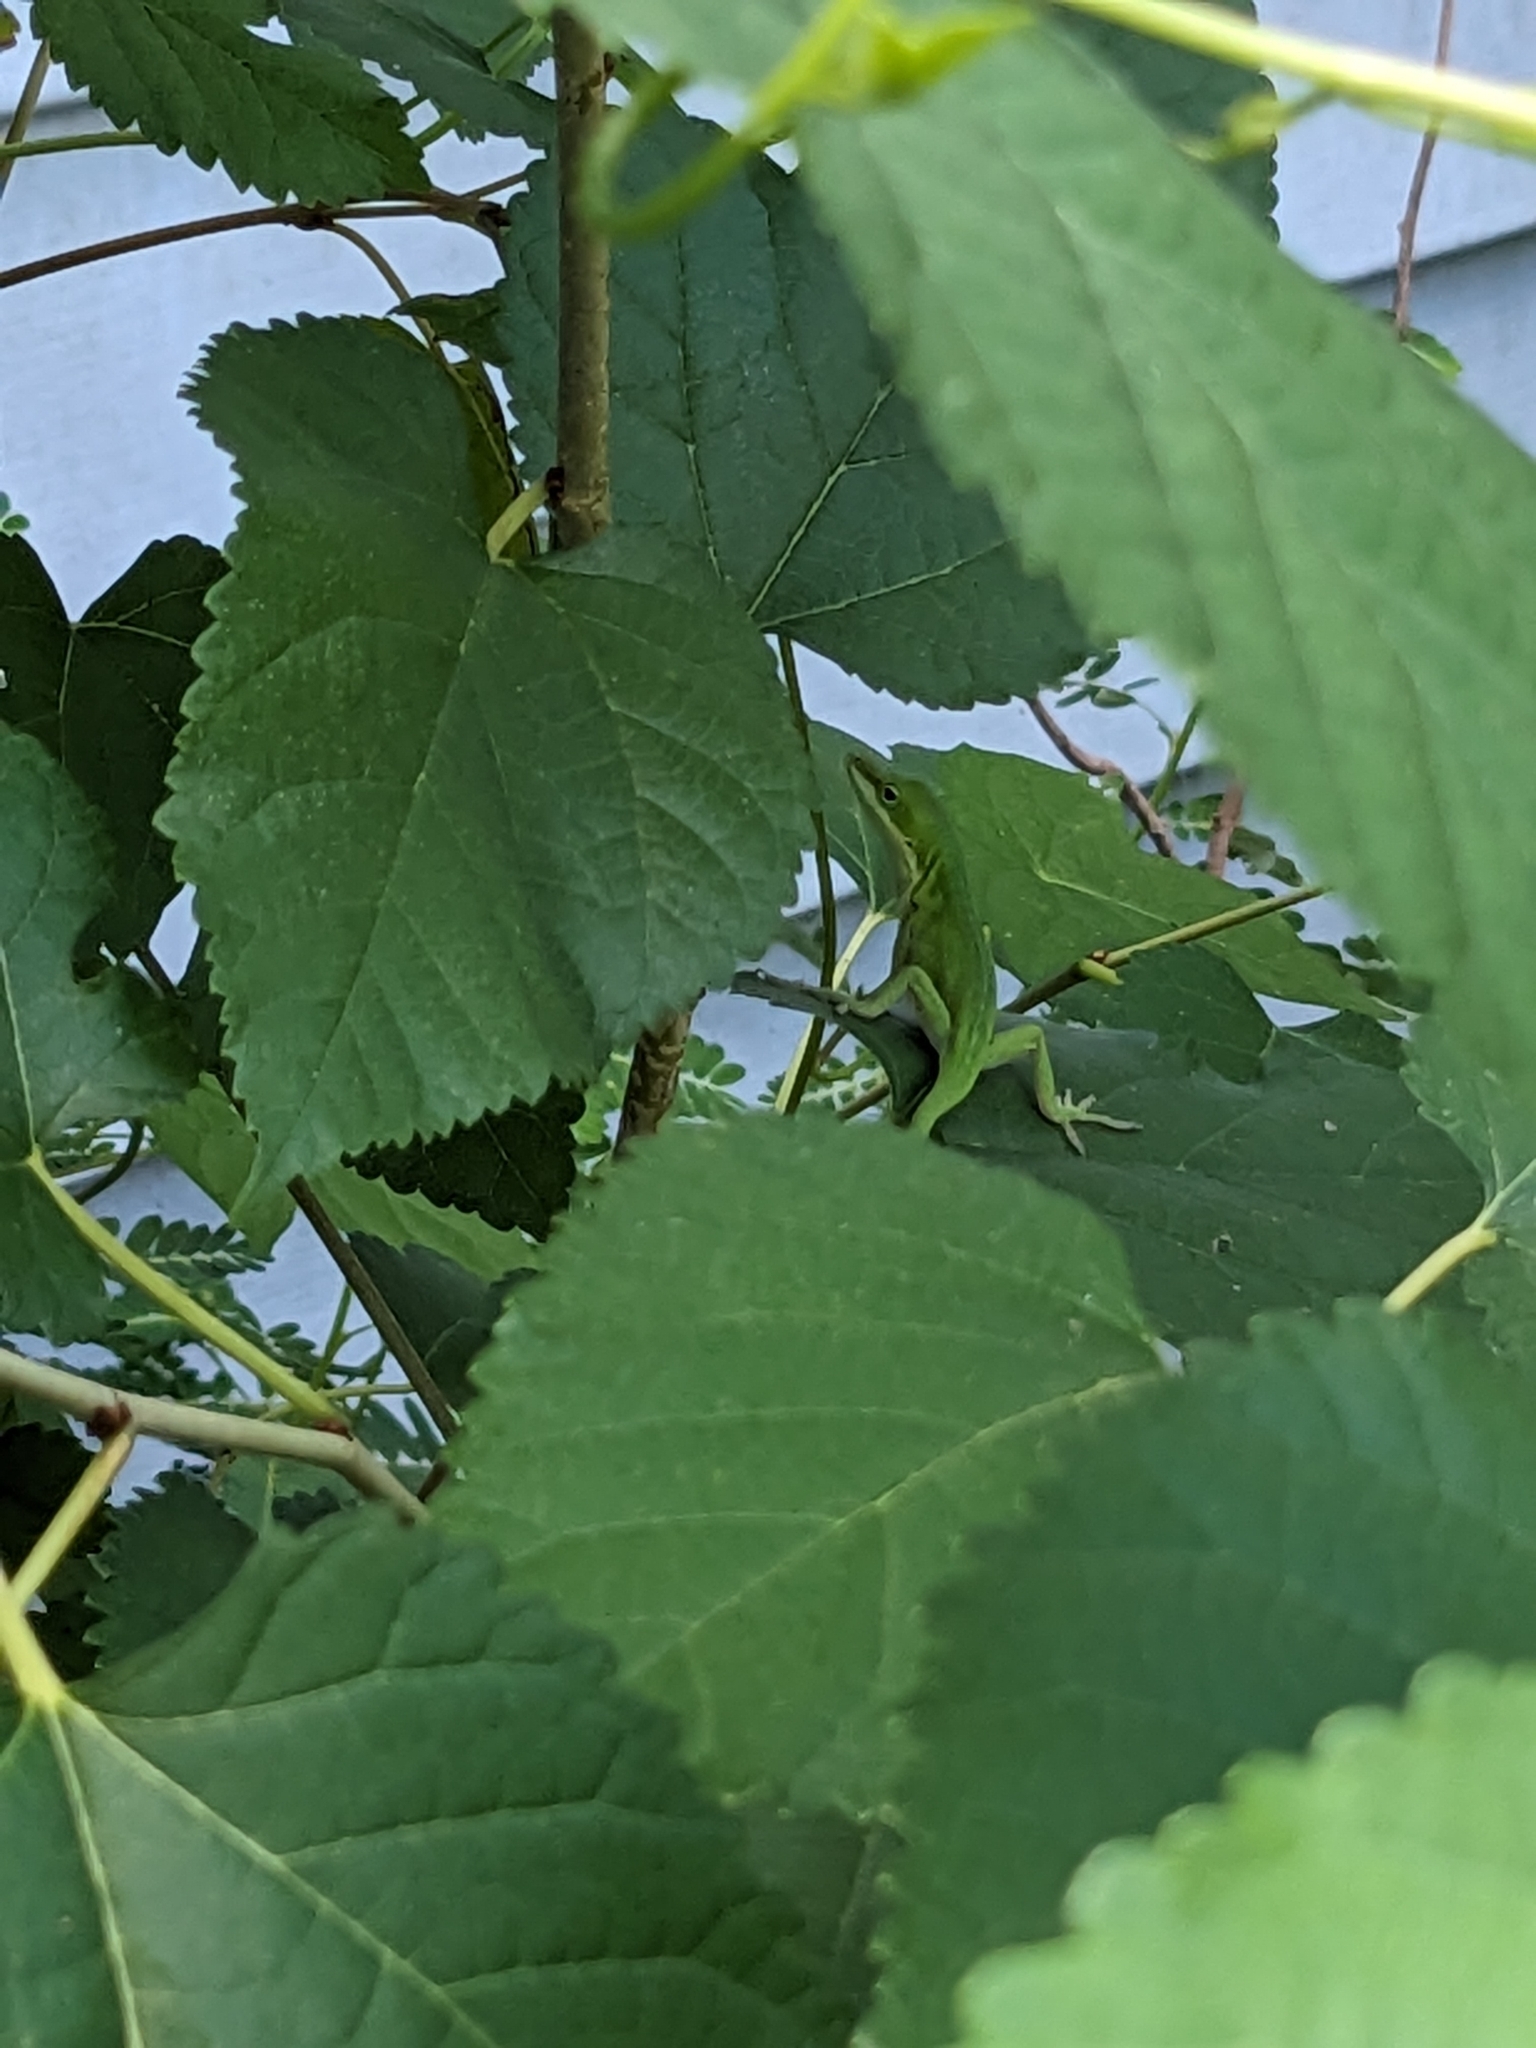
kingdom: Animalia
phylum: Chordata
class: Squamata
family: Dactyloidae
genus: Anolis
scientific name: Anolis carolinensis
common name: Green anole
